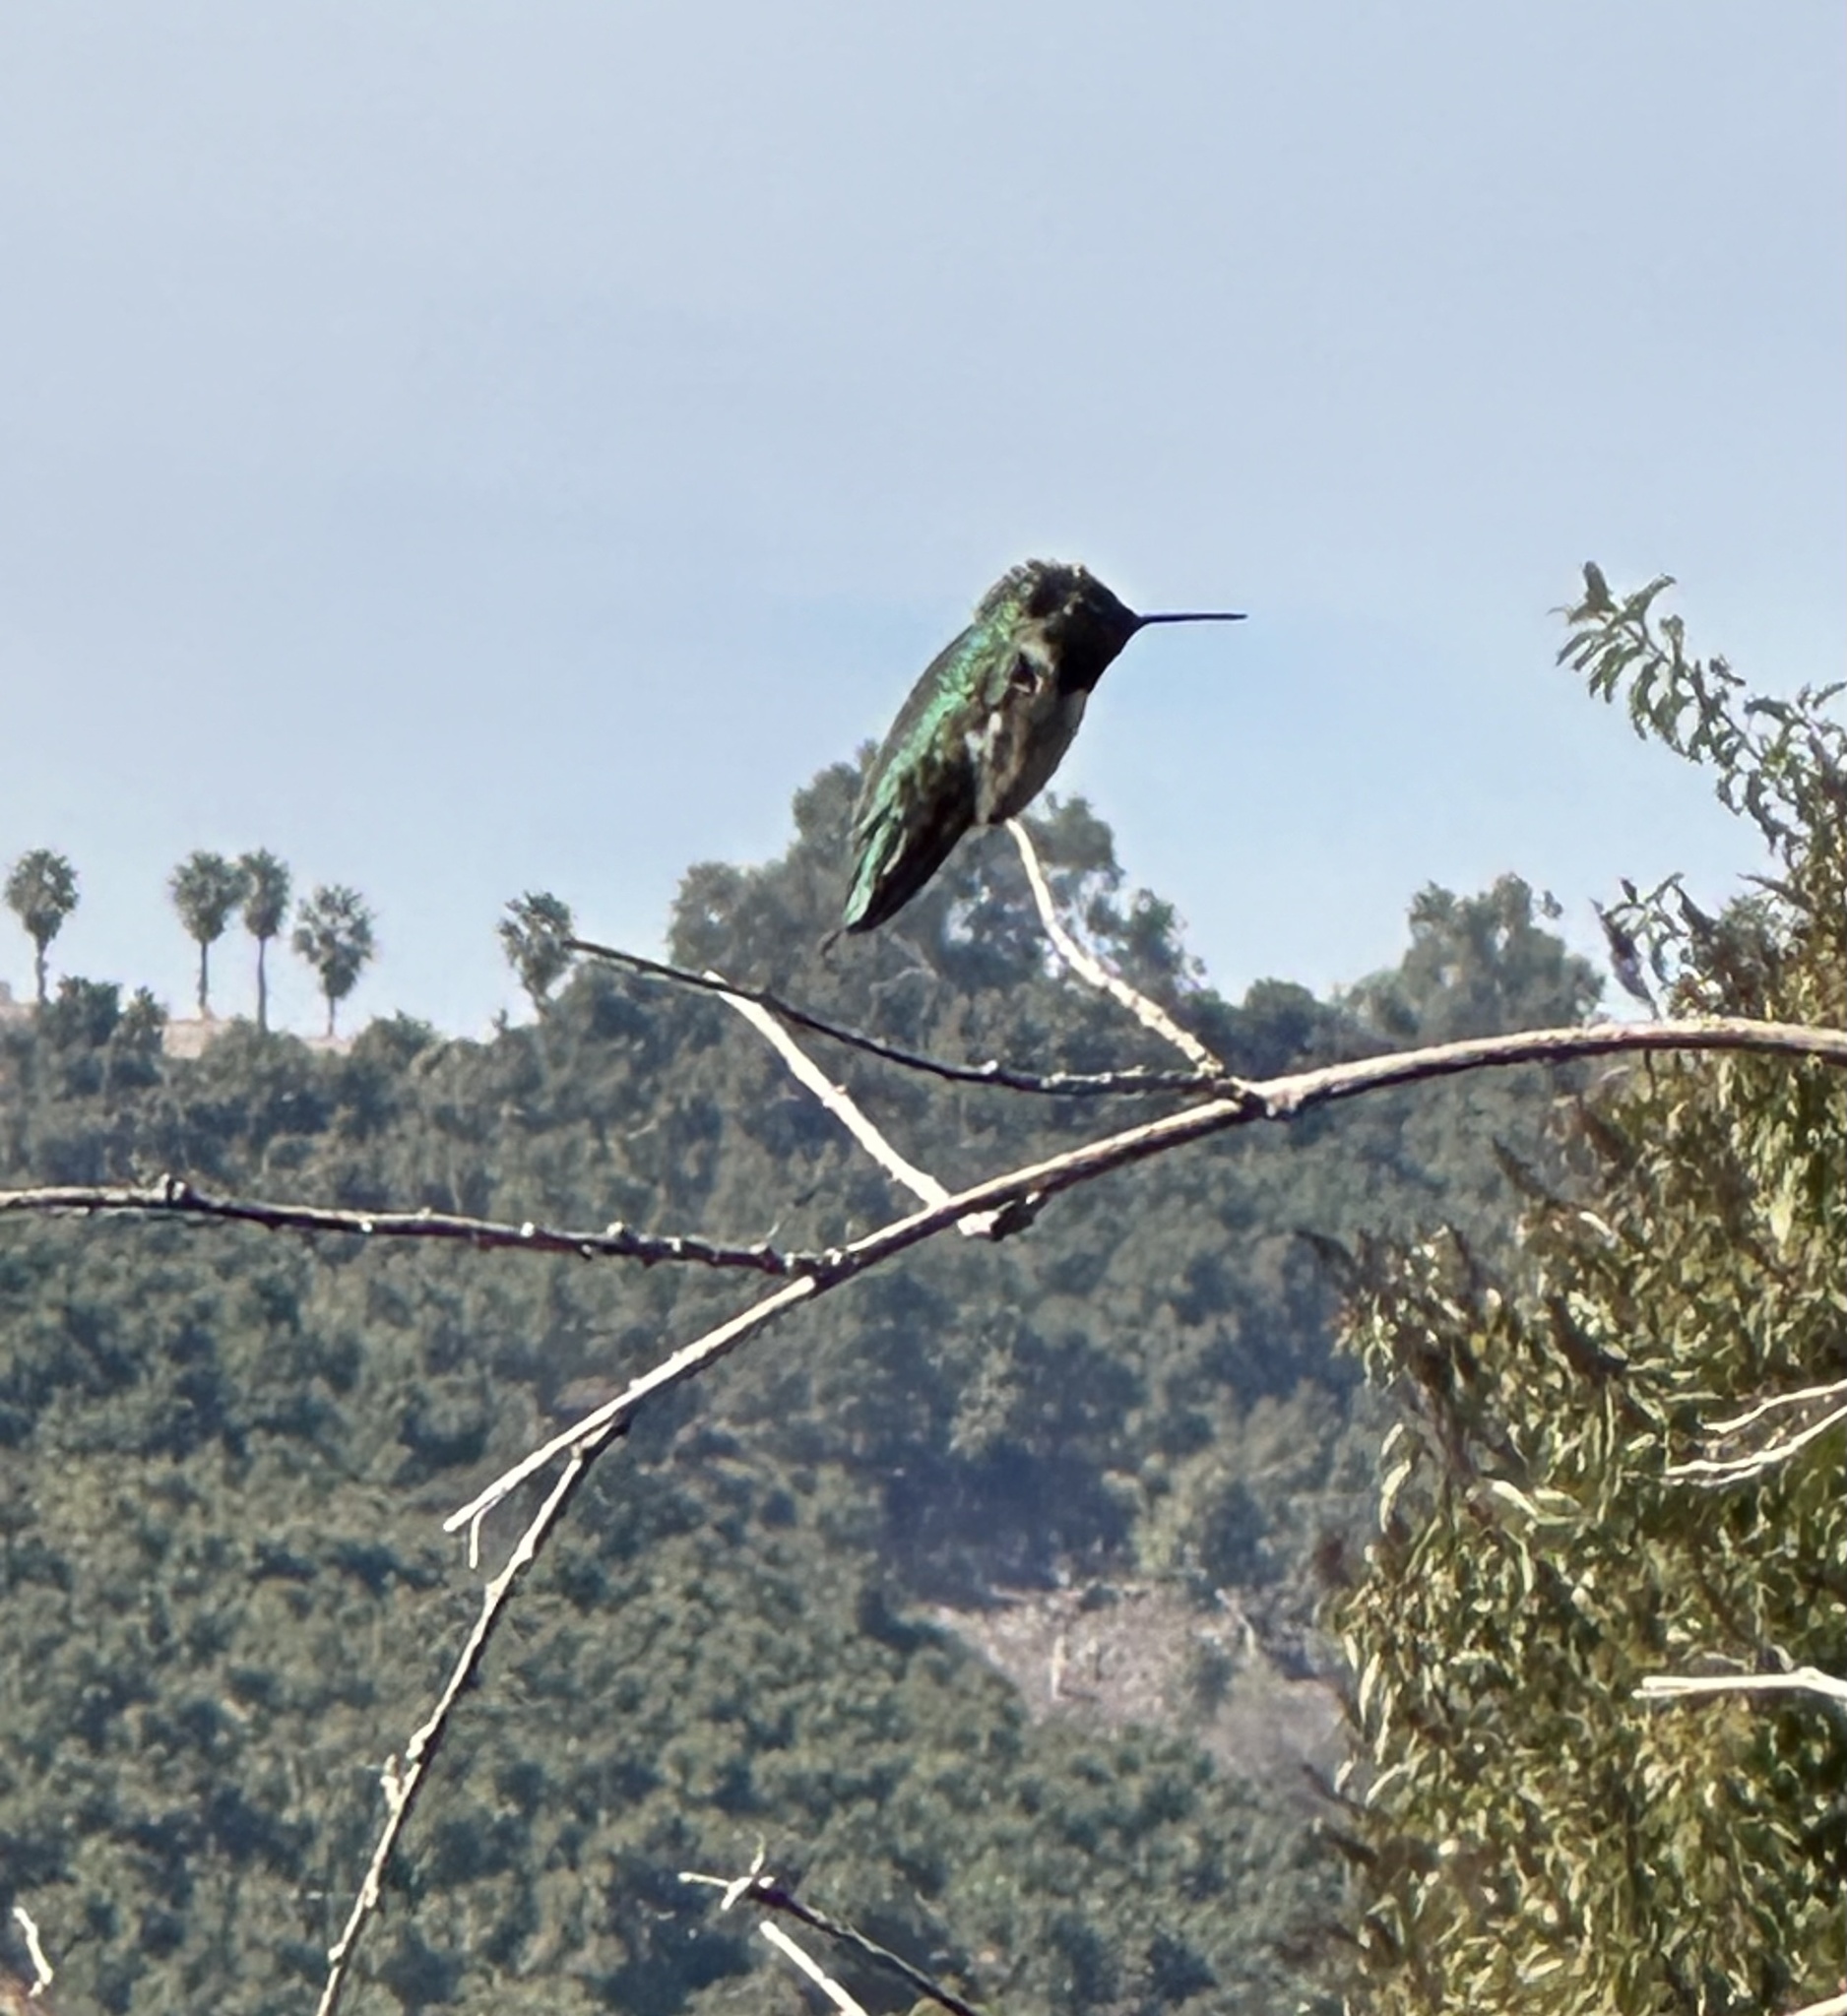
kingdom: Animalia
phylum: Chordata
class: Aves
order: Apodiformes
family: Trochilidae
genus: Calypte
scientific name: Calypte anna
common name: Anna's hummingbird
